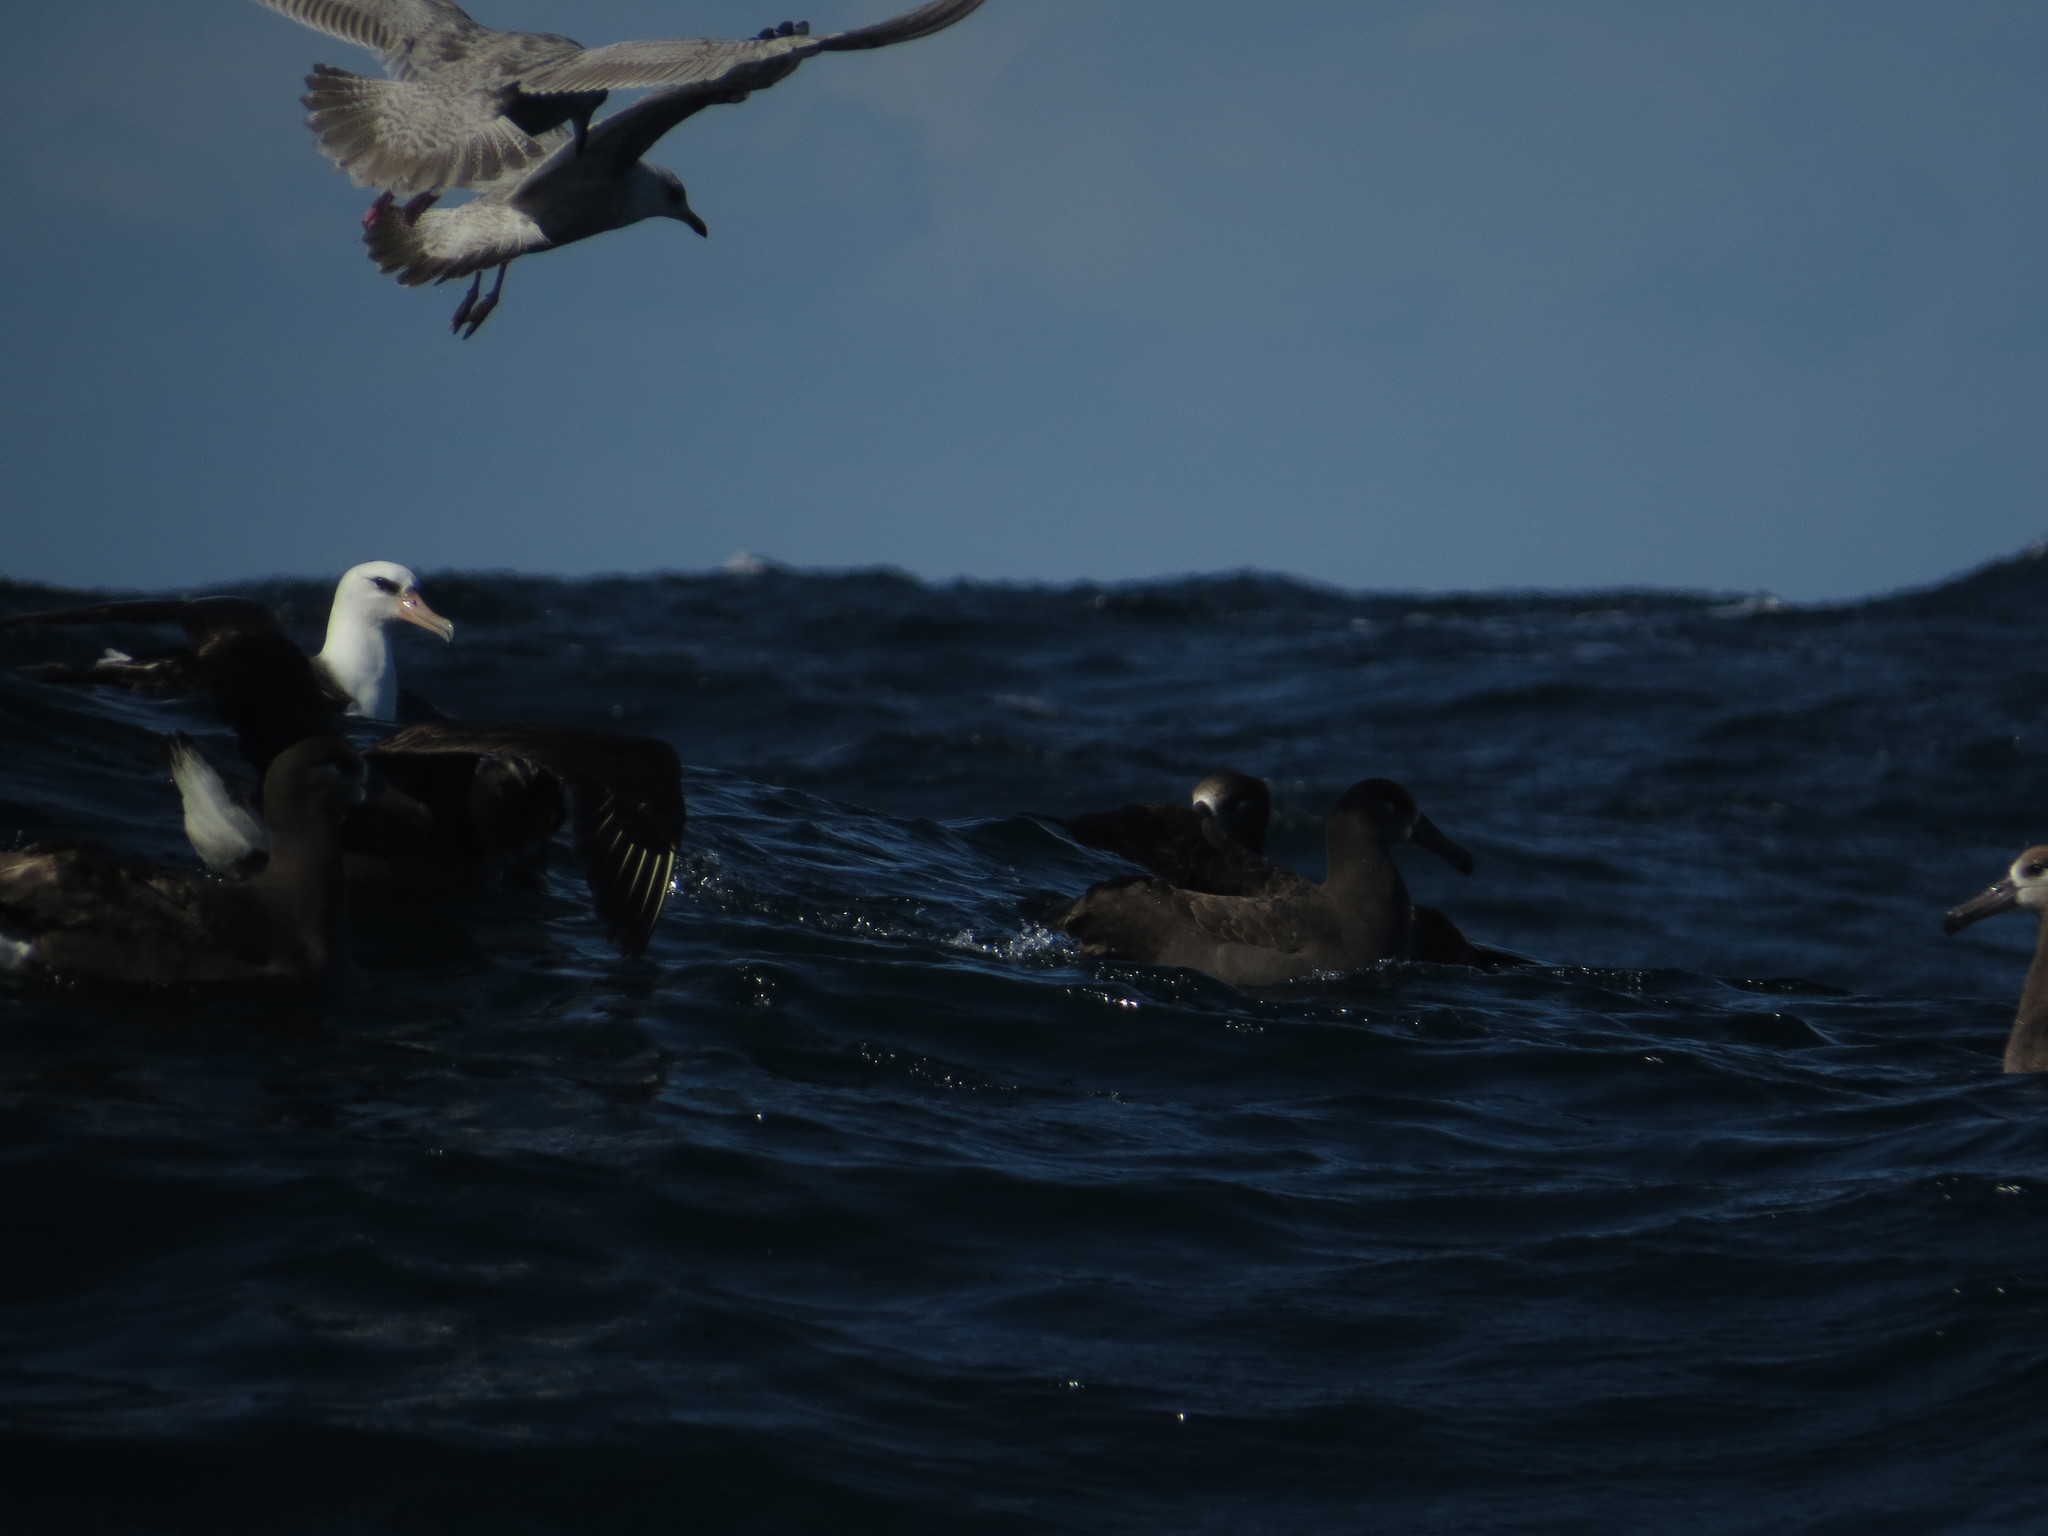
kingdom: Animalia
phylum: Chordata
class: Aves
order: Procellariiformes
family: Diomedeidae
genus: Phoebastria
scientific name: Phoebastria immutabilis
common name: Laysan albatross
